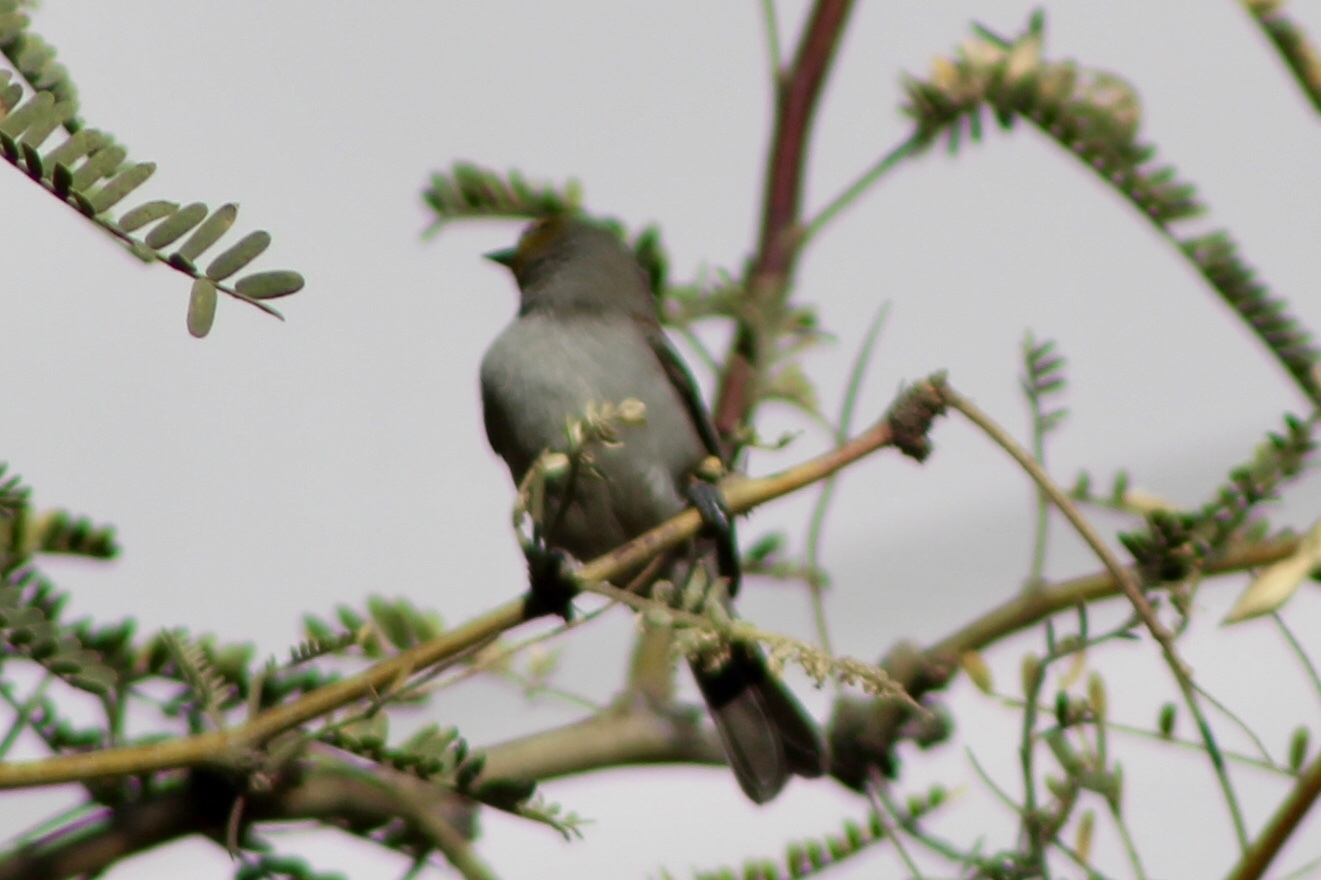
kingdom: Animalia
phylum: Chordata
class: Aves
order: Passeriformes
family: Remizidae
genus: Auriparus
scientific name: Auriparus flaviceps
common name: Verdin
